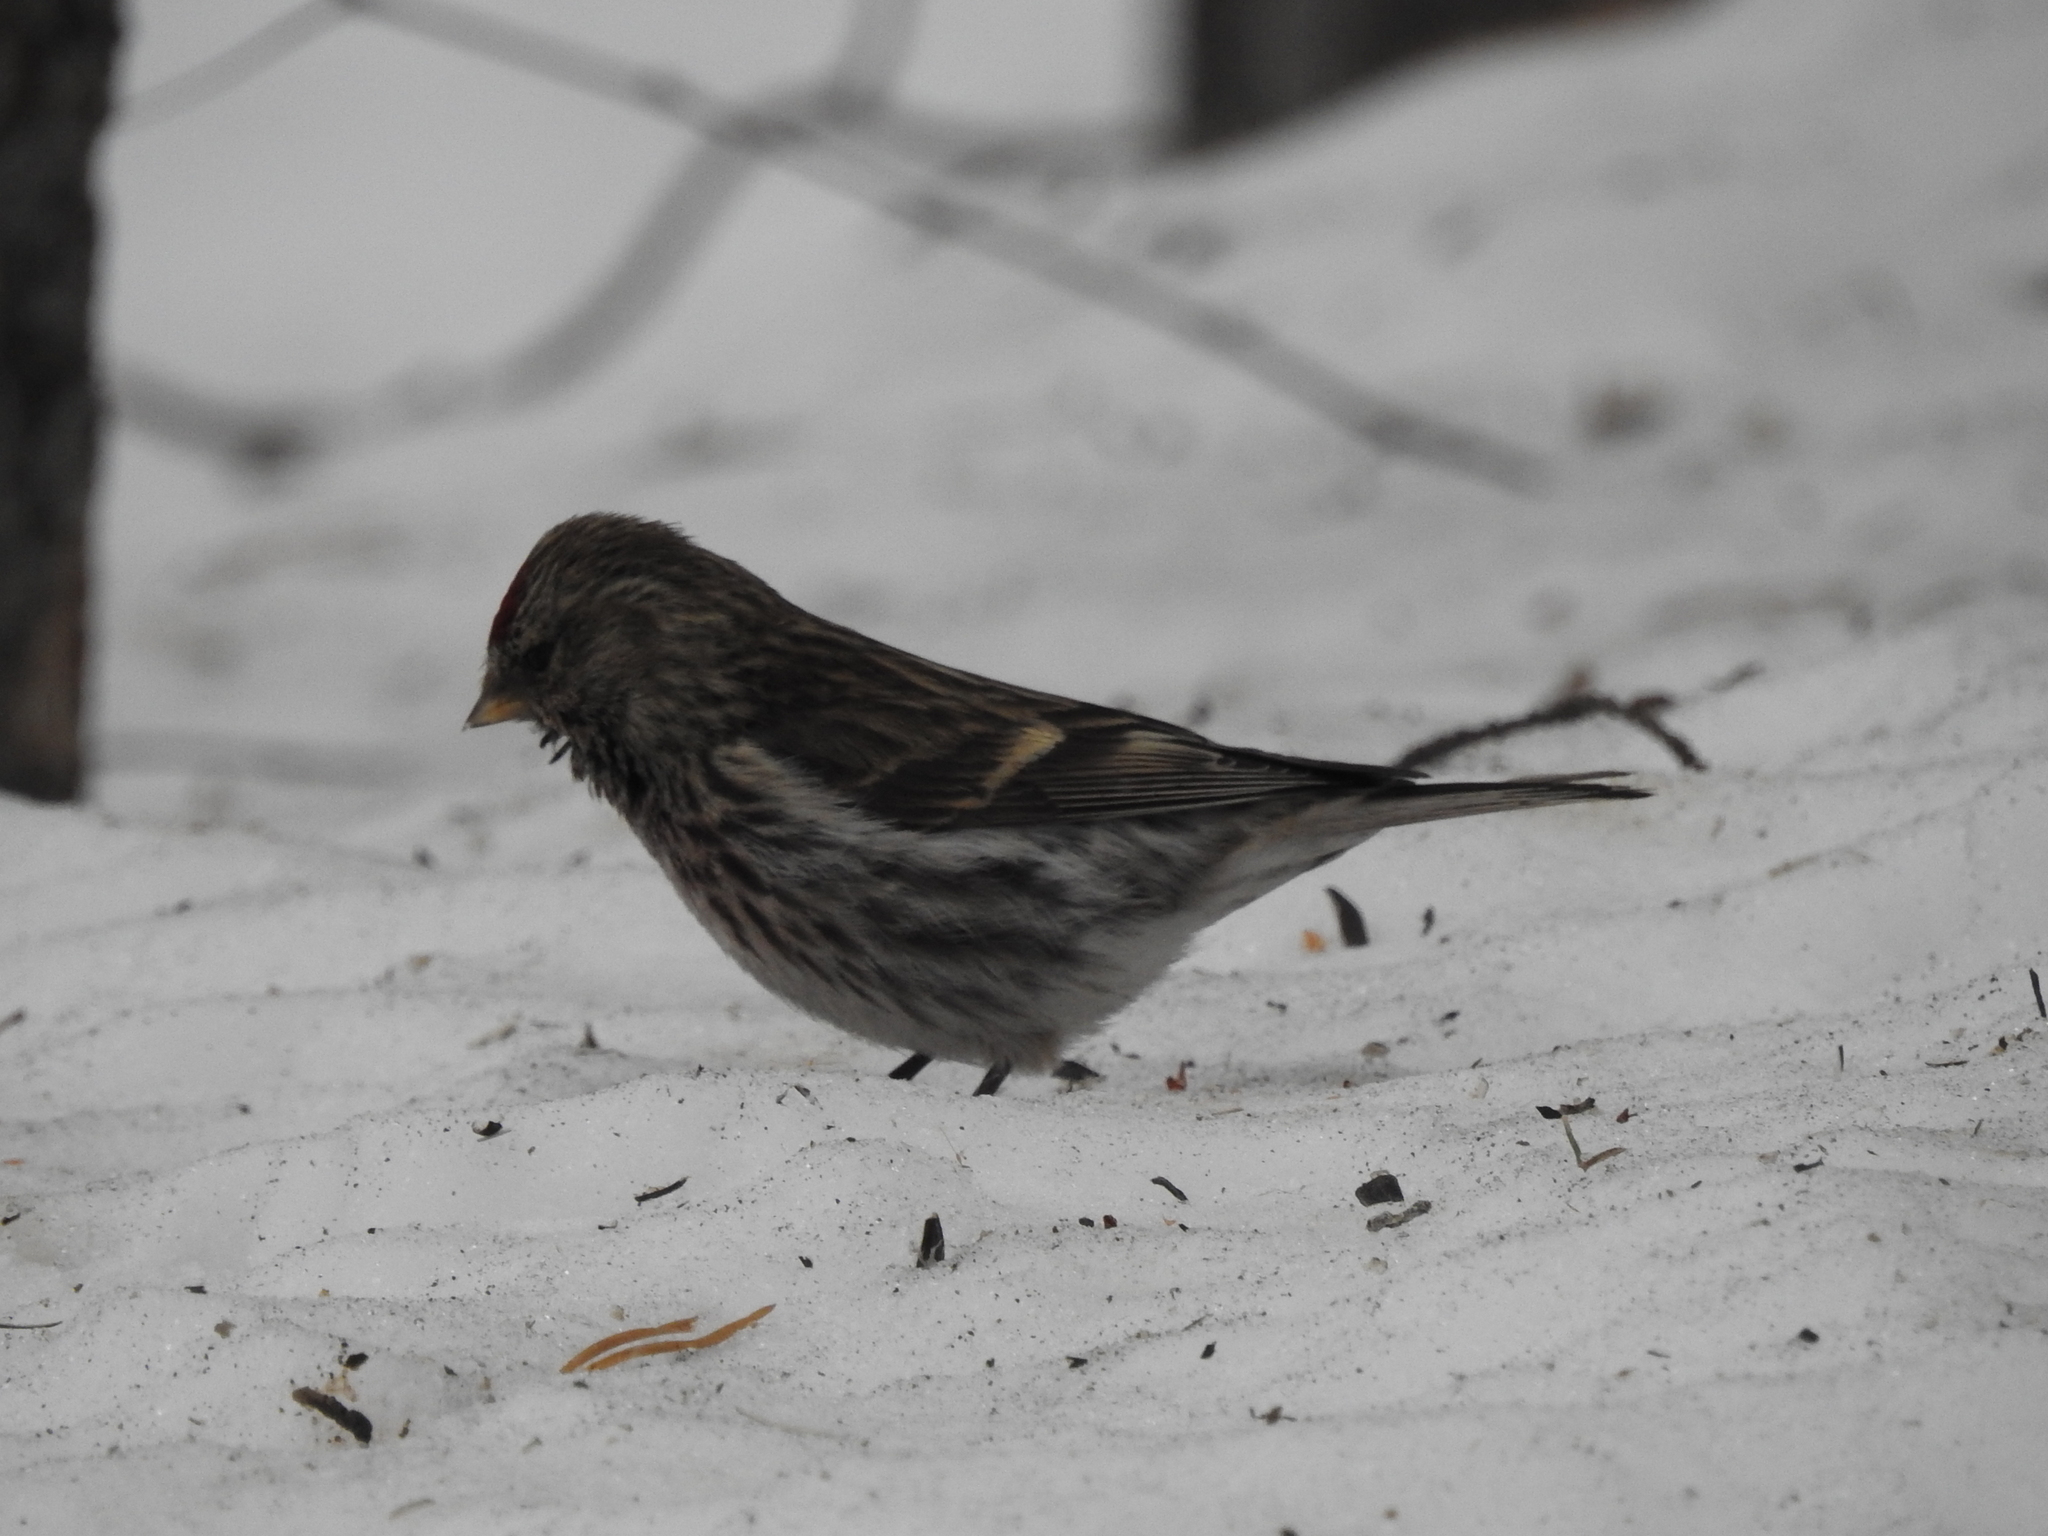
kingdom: Animalia
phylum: Chordata
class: Aves
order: Passeriformes
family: Fringillidae
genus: Acanthis
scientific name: Acanthis flammea
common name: Common redpoll
